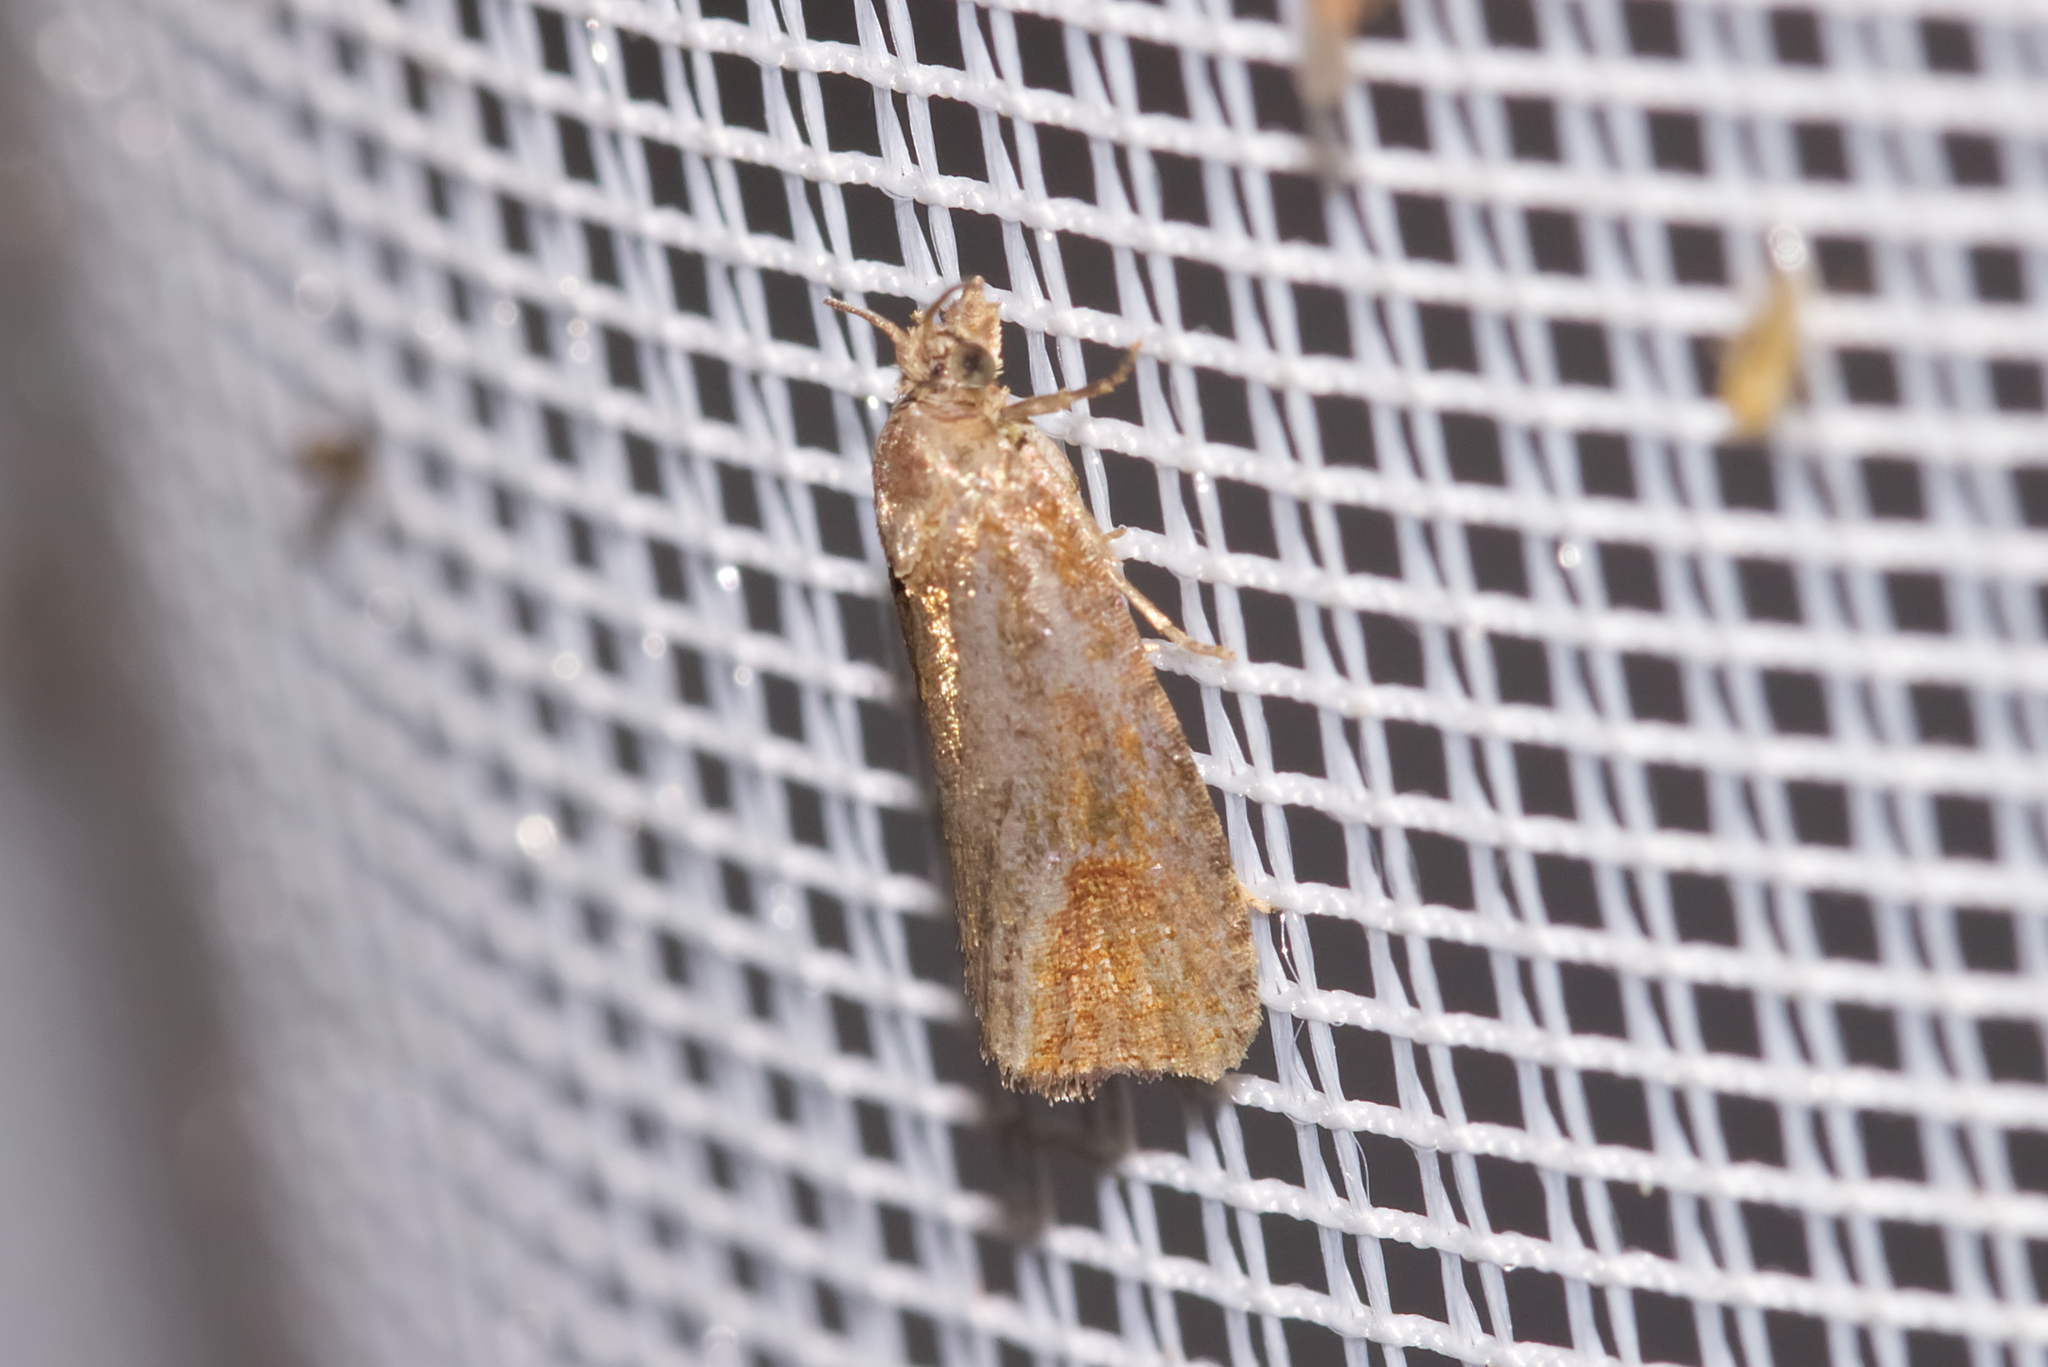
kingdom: Animalia
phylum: Arthropoda
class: Insecta
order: Lepidoptera
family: Tortricidae
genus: Celypha
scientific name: Celypha rufana
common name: Lakes marble
